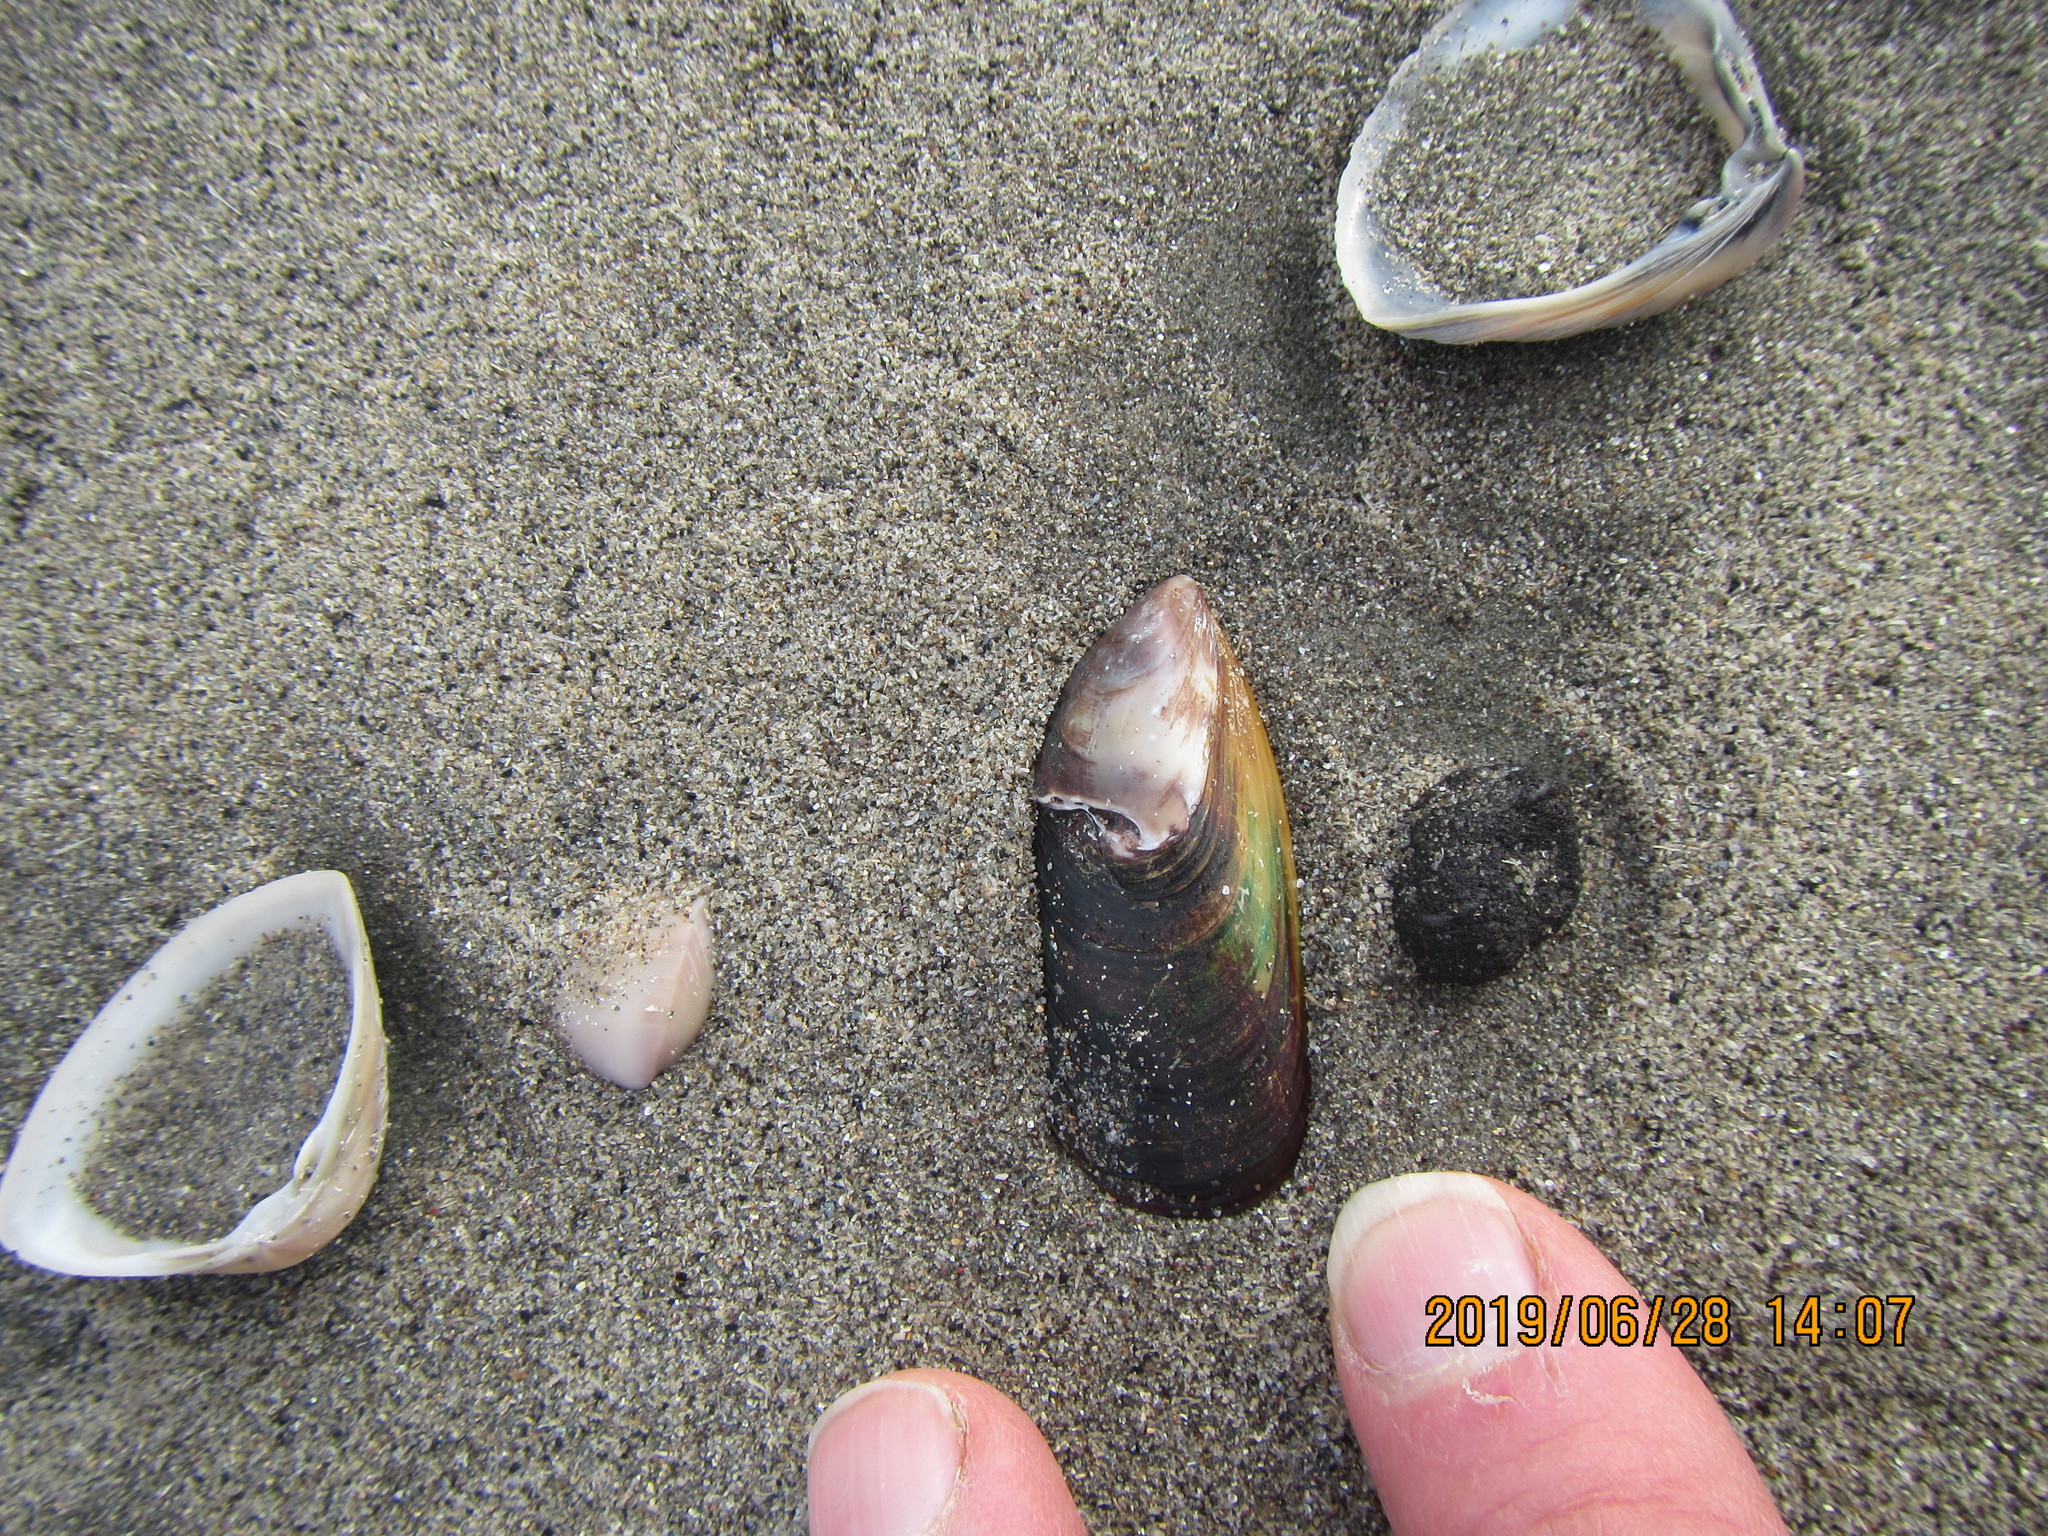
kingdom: Animalia
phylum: Mollusca
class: Bivalvia
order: Mytilida
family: Mytilidae
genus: Perna
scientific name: Perna canaliculus
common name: New zealand greenshelltm
